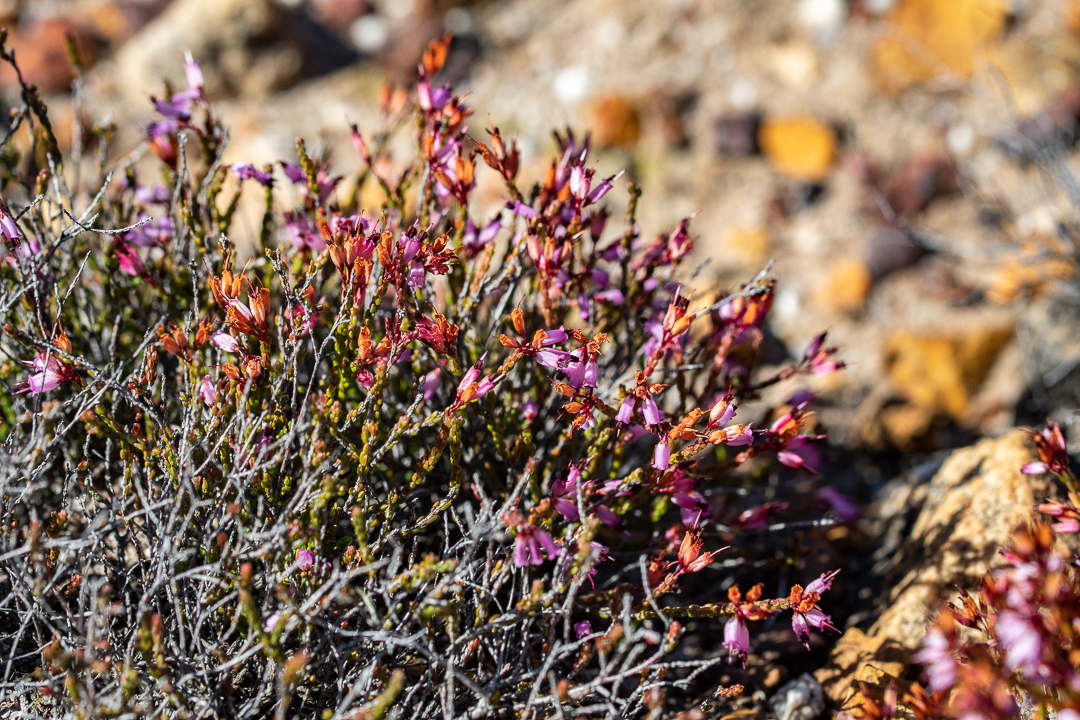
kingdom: Plantae
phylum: Tracheophyta
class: Magnoliopsida
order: Ericales
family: Ericaceae
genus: Erica
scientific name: Erica equisetifolia
